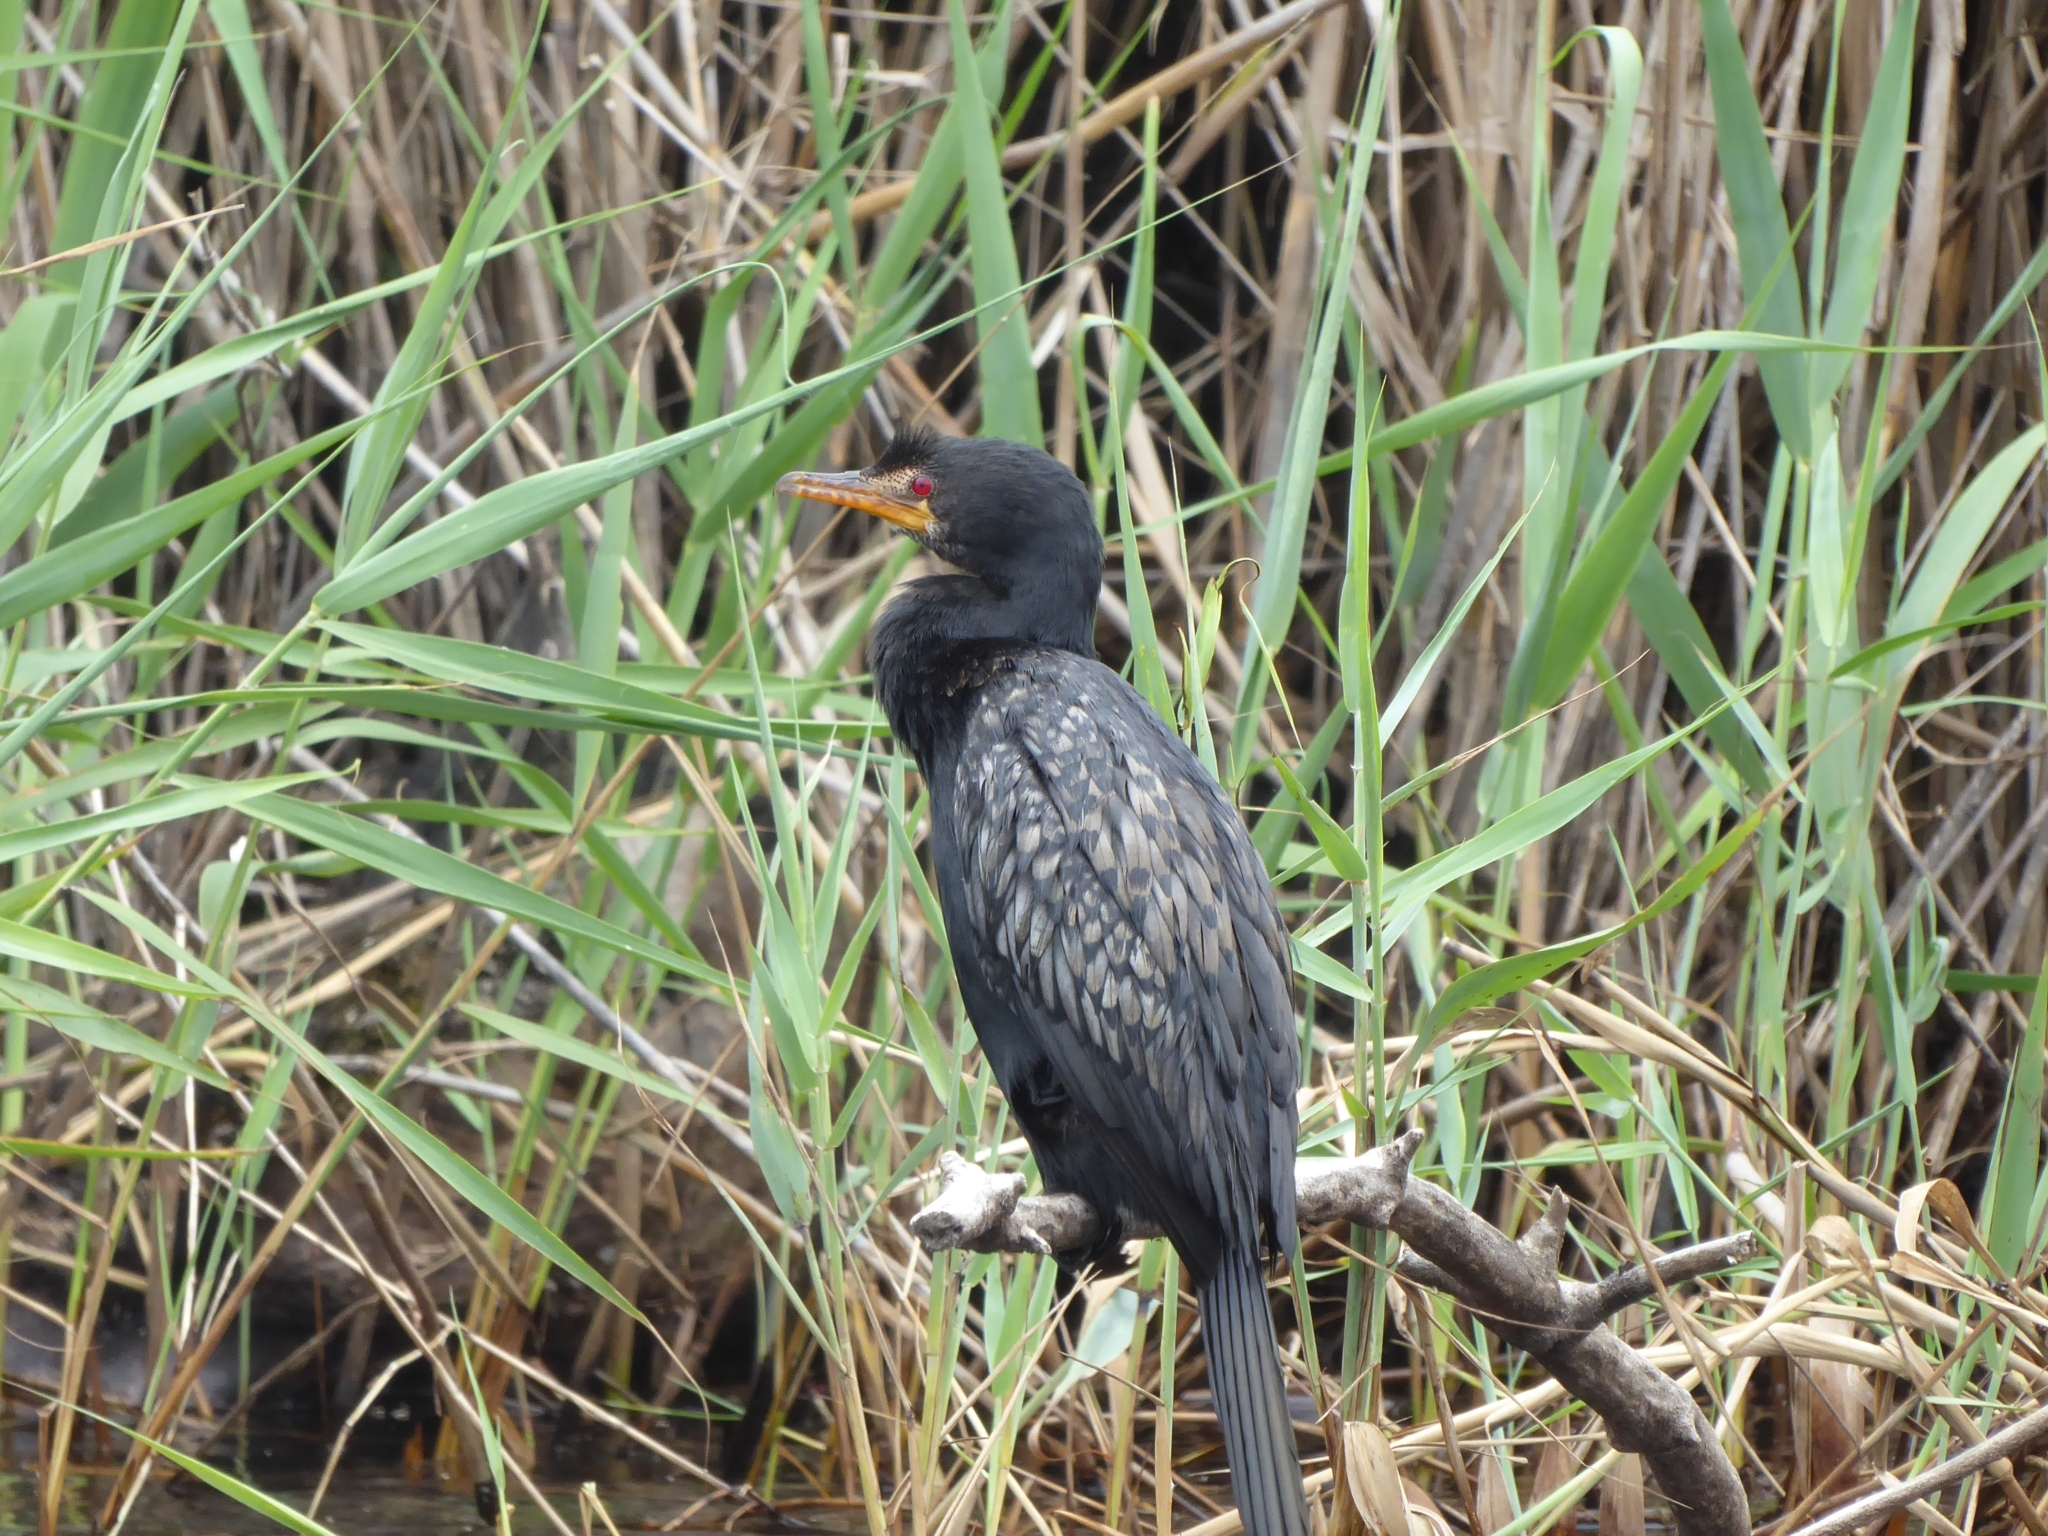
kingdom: Animalia
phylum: Chordata
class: Aves
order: Suliformes
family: Phalacrocoracidae
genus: Microcarbo
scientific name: Microcarbo africanus
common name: Long-tailed cormorant
